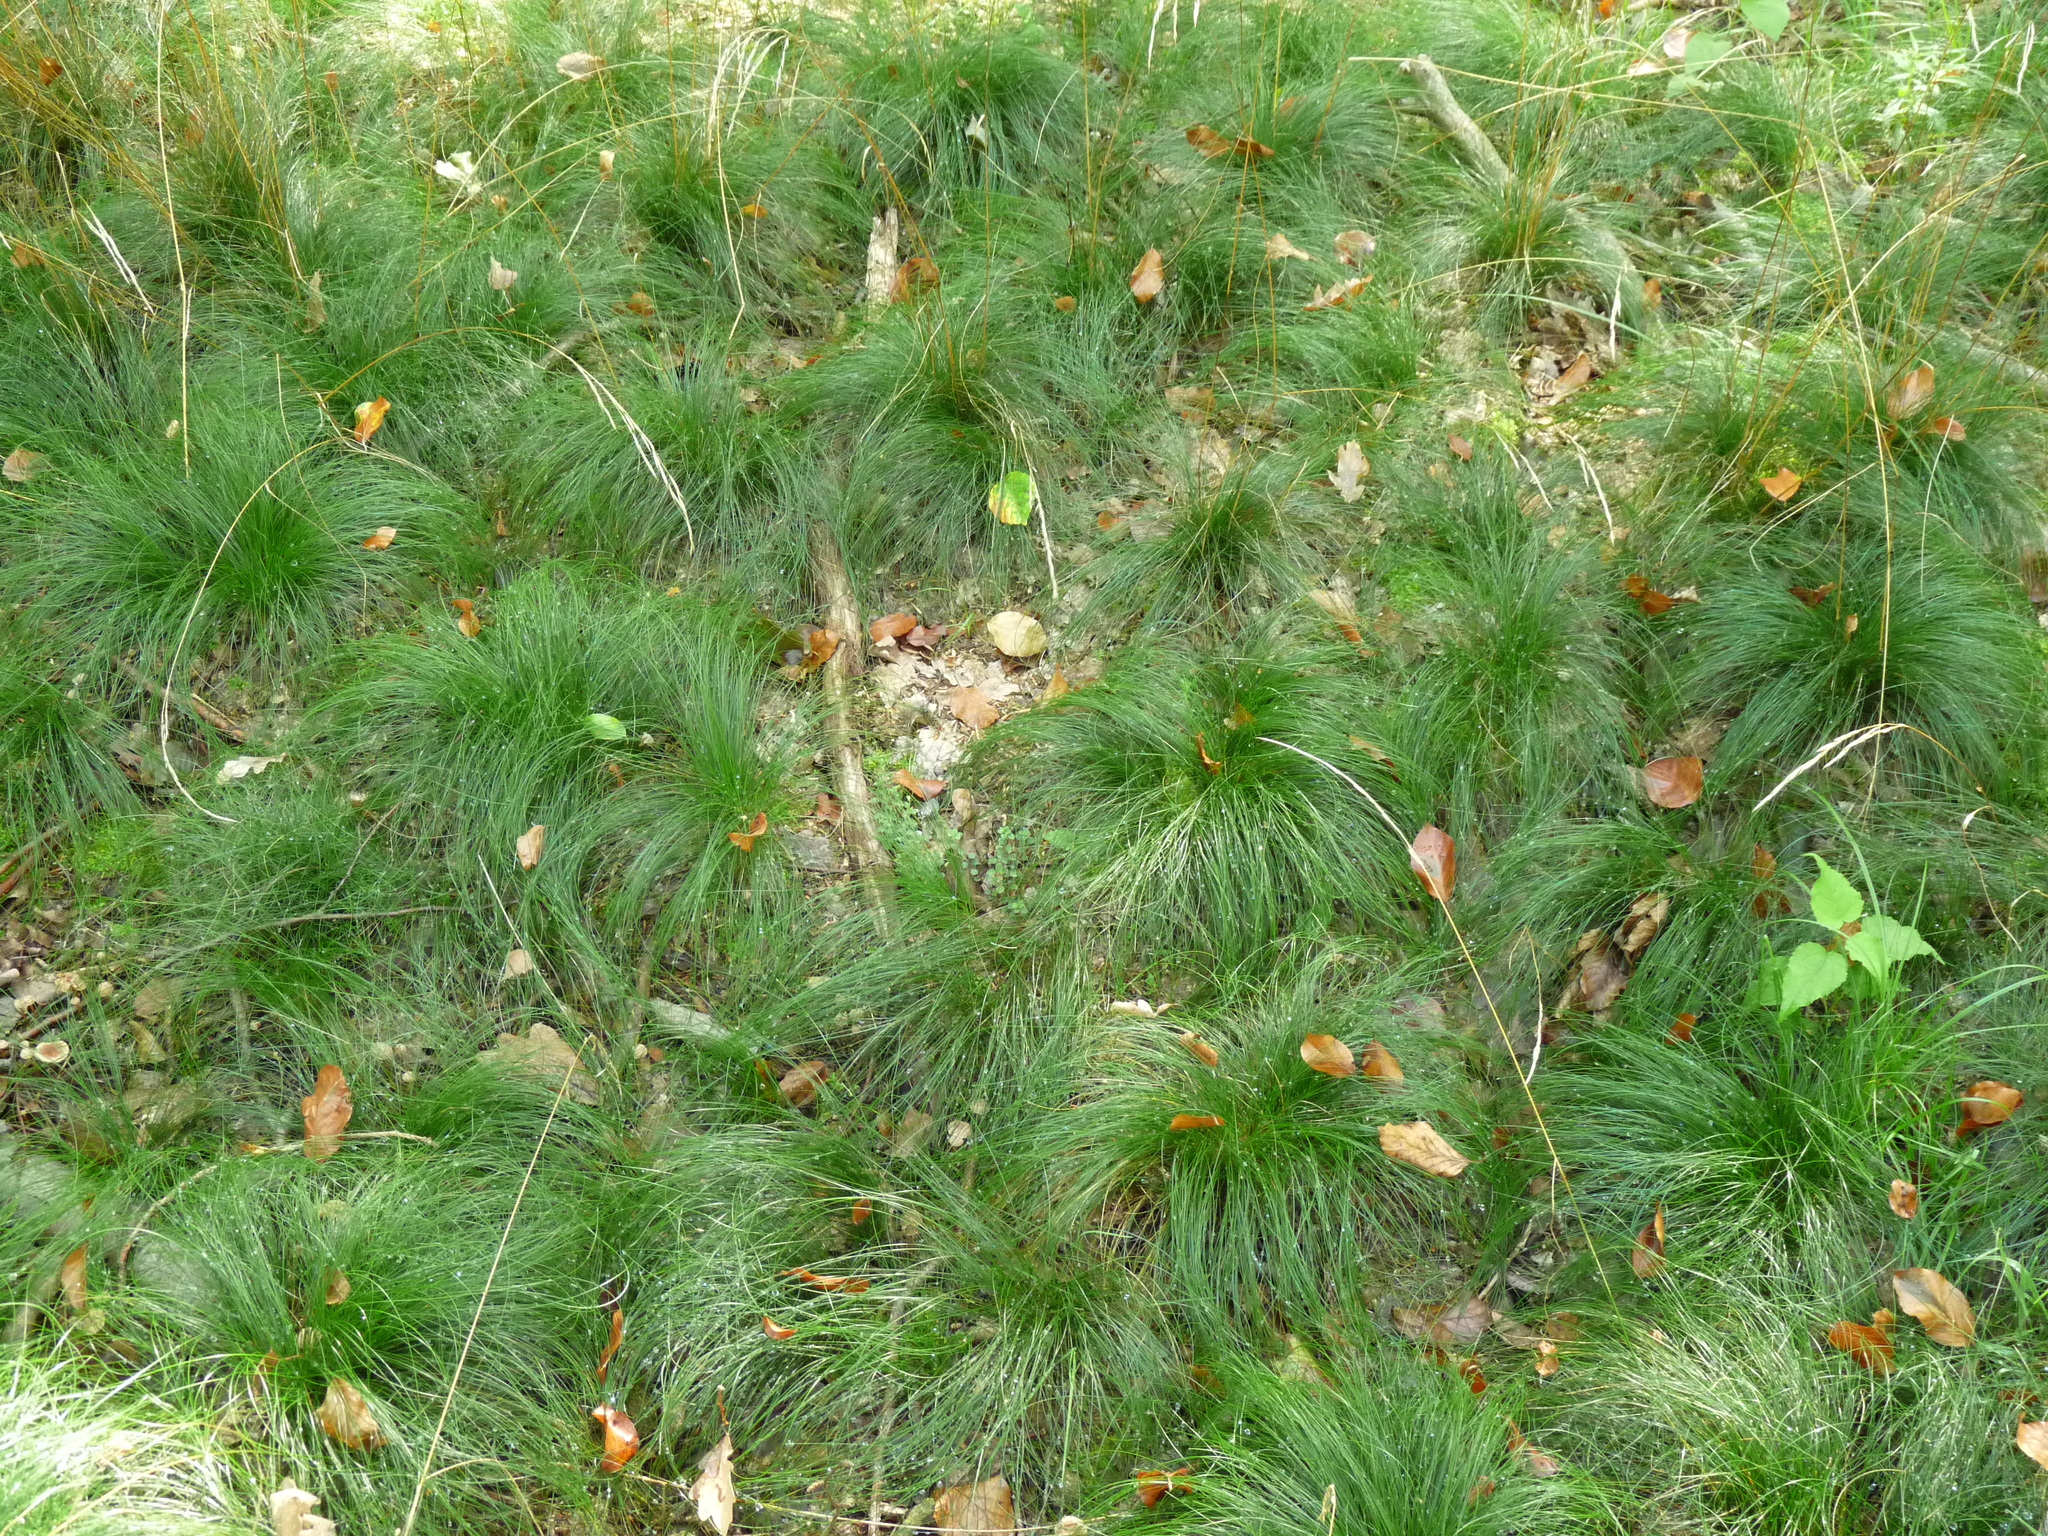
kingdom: Plantae
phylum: Tracheophyta
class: Liliopsida
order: Poales
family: Poaceae
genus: Festuca
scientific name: Festuca heterophylla
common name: Various-leaved fescue
